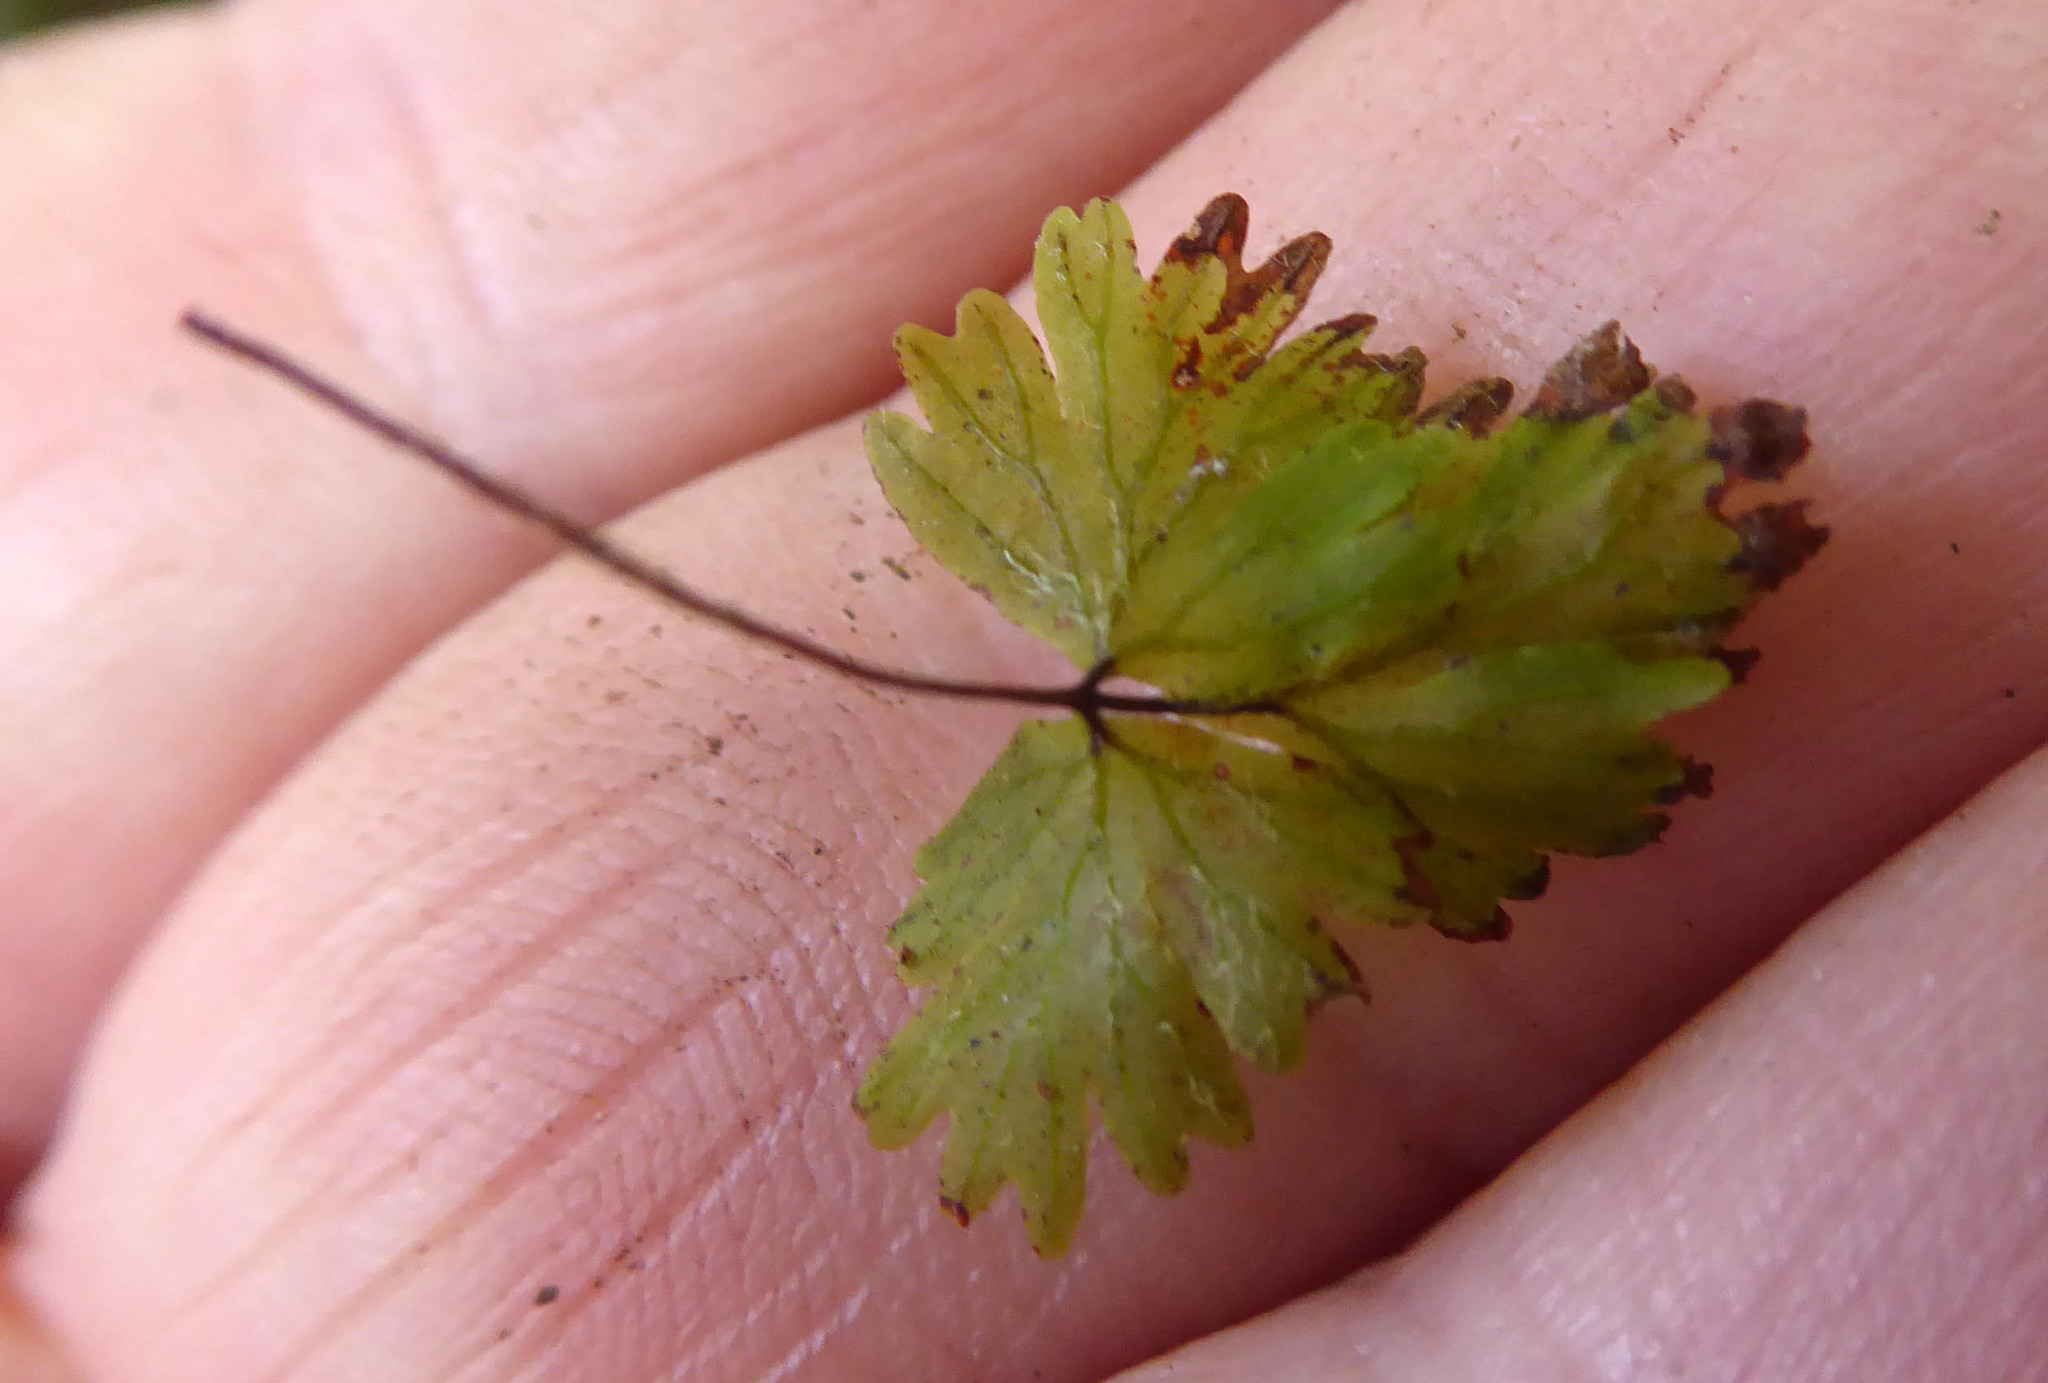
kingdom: Plantae
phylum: Tracheophyta
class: Polypodiopsida
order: Hymenophyllales
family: Hymenophyllaceae
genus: Hymenophyllum
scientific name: Hymenophyllum rufescens
